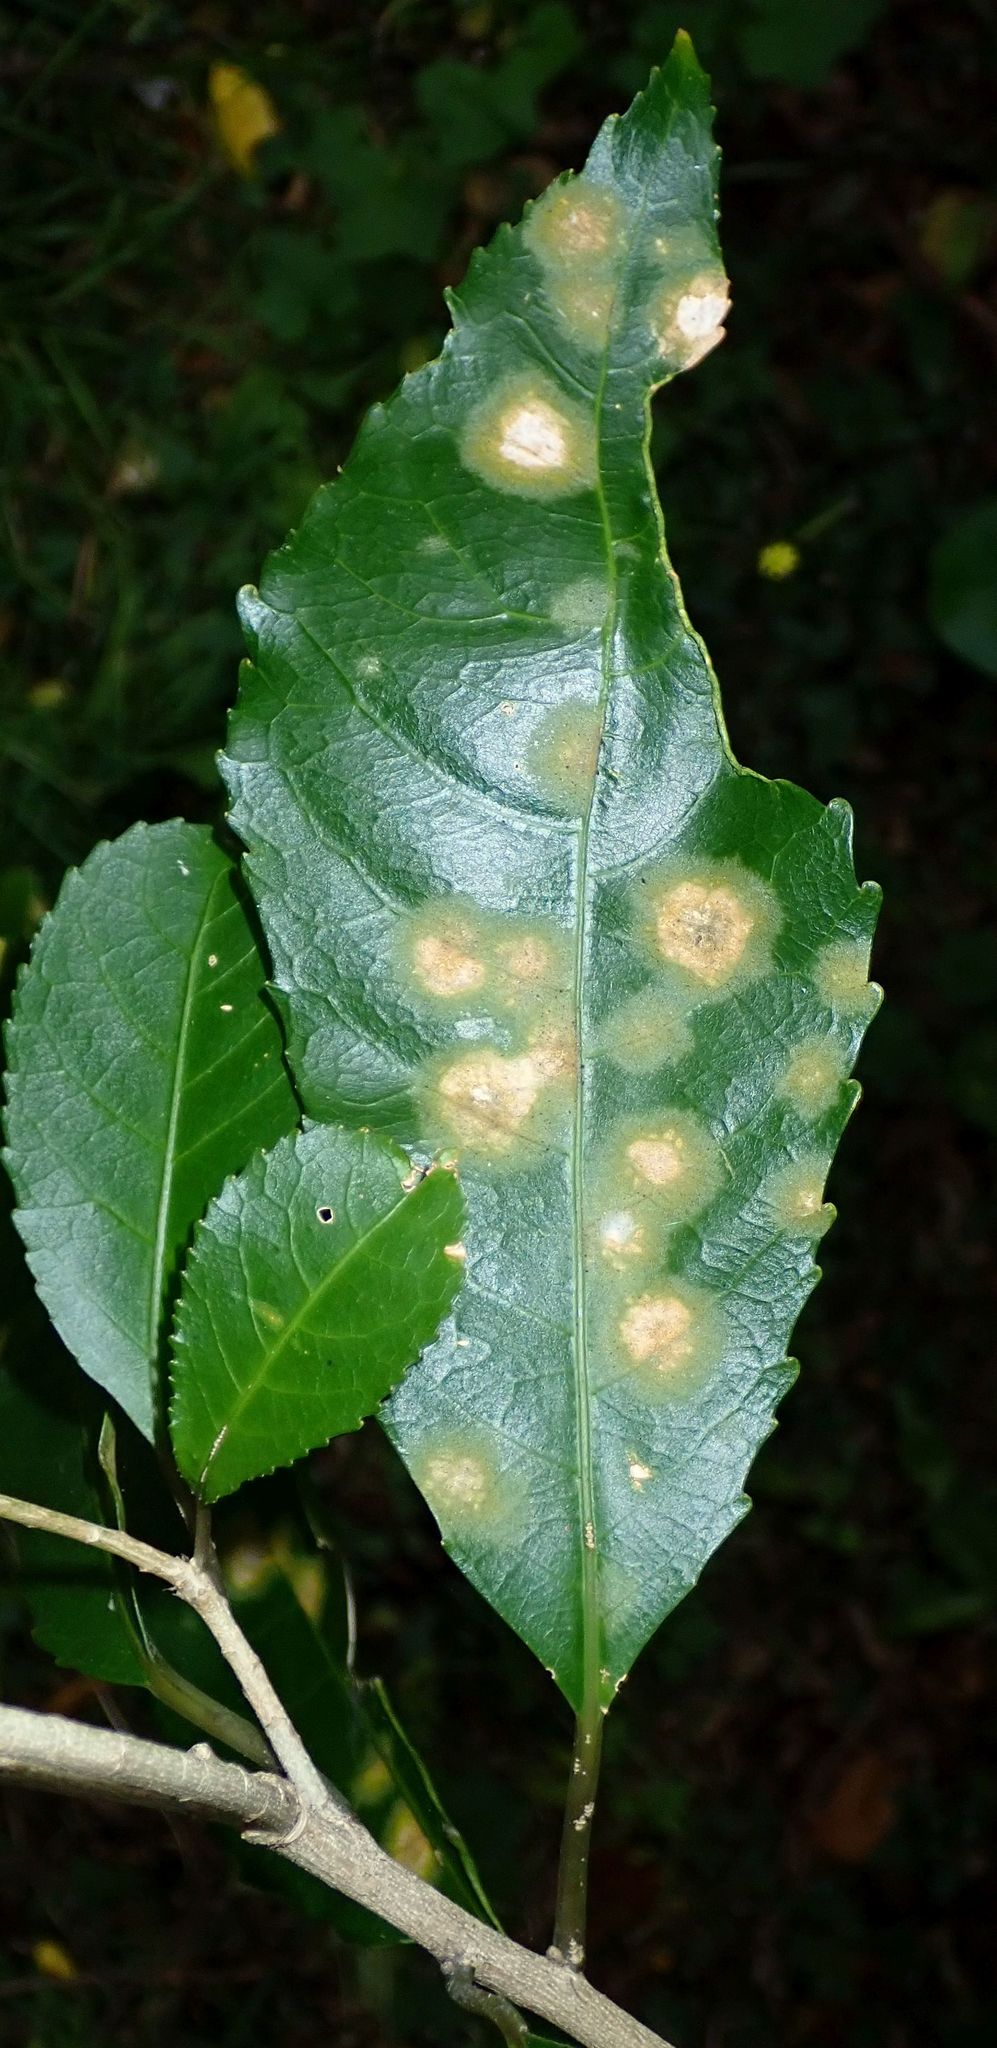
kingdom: Plantae
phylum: Chlorophyta
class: Ulvophyceae
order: Trentepohliales
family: Trentepohliaceae
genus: Cephaleuros
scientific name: Cephaleuros
